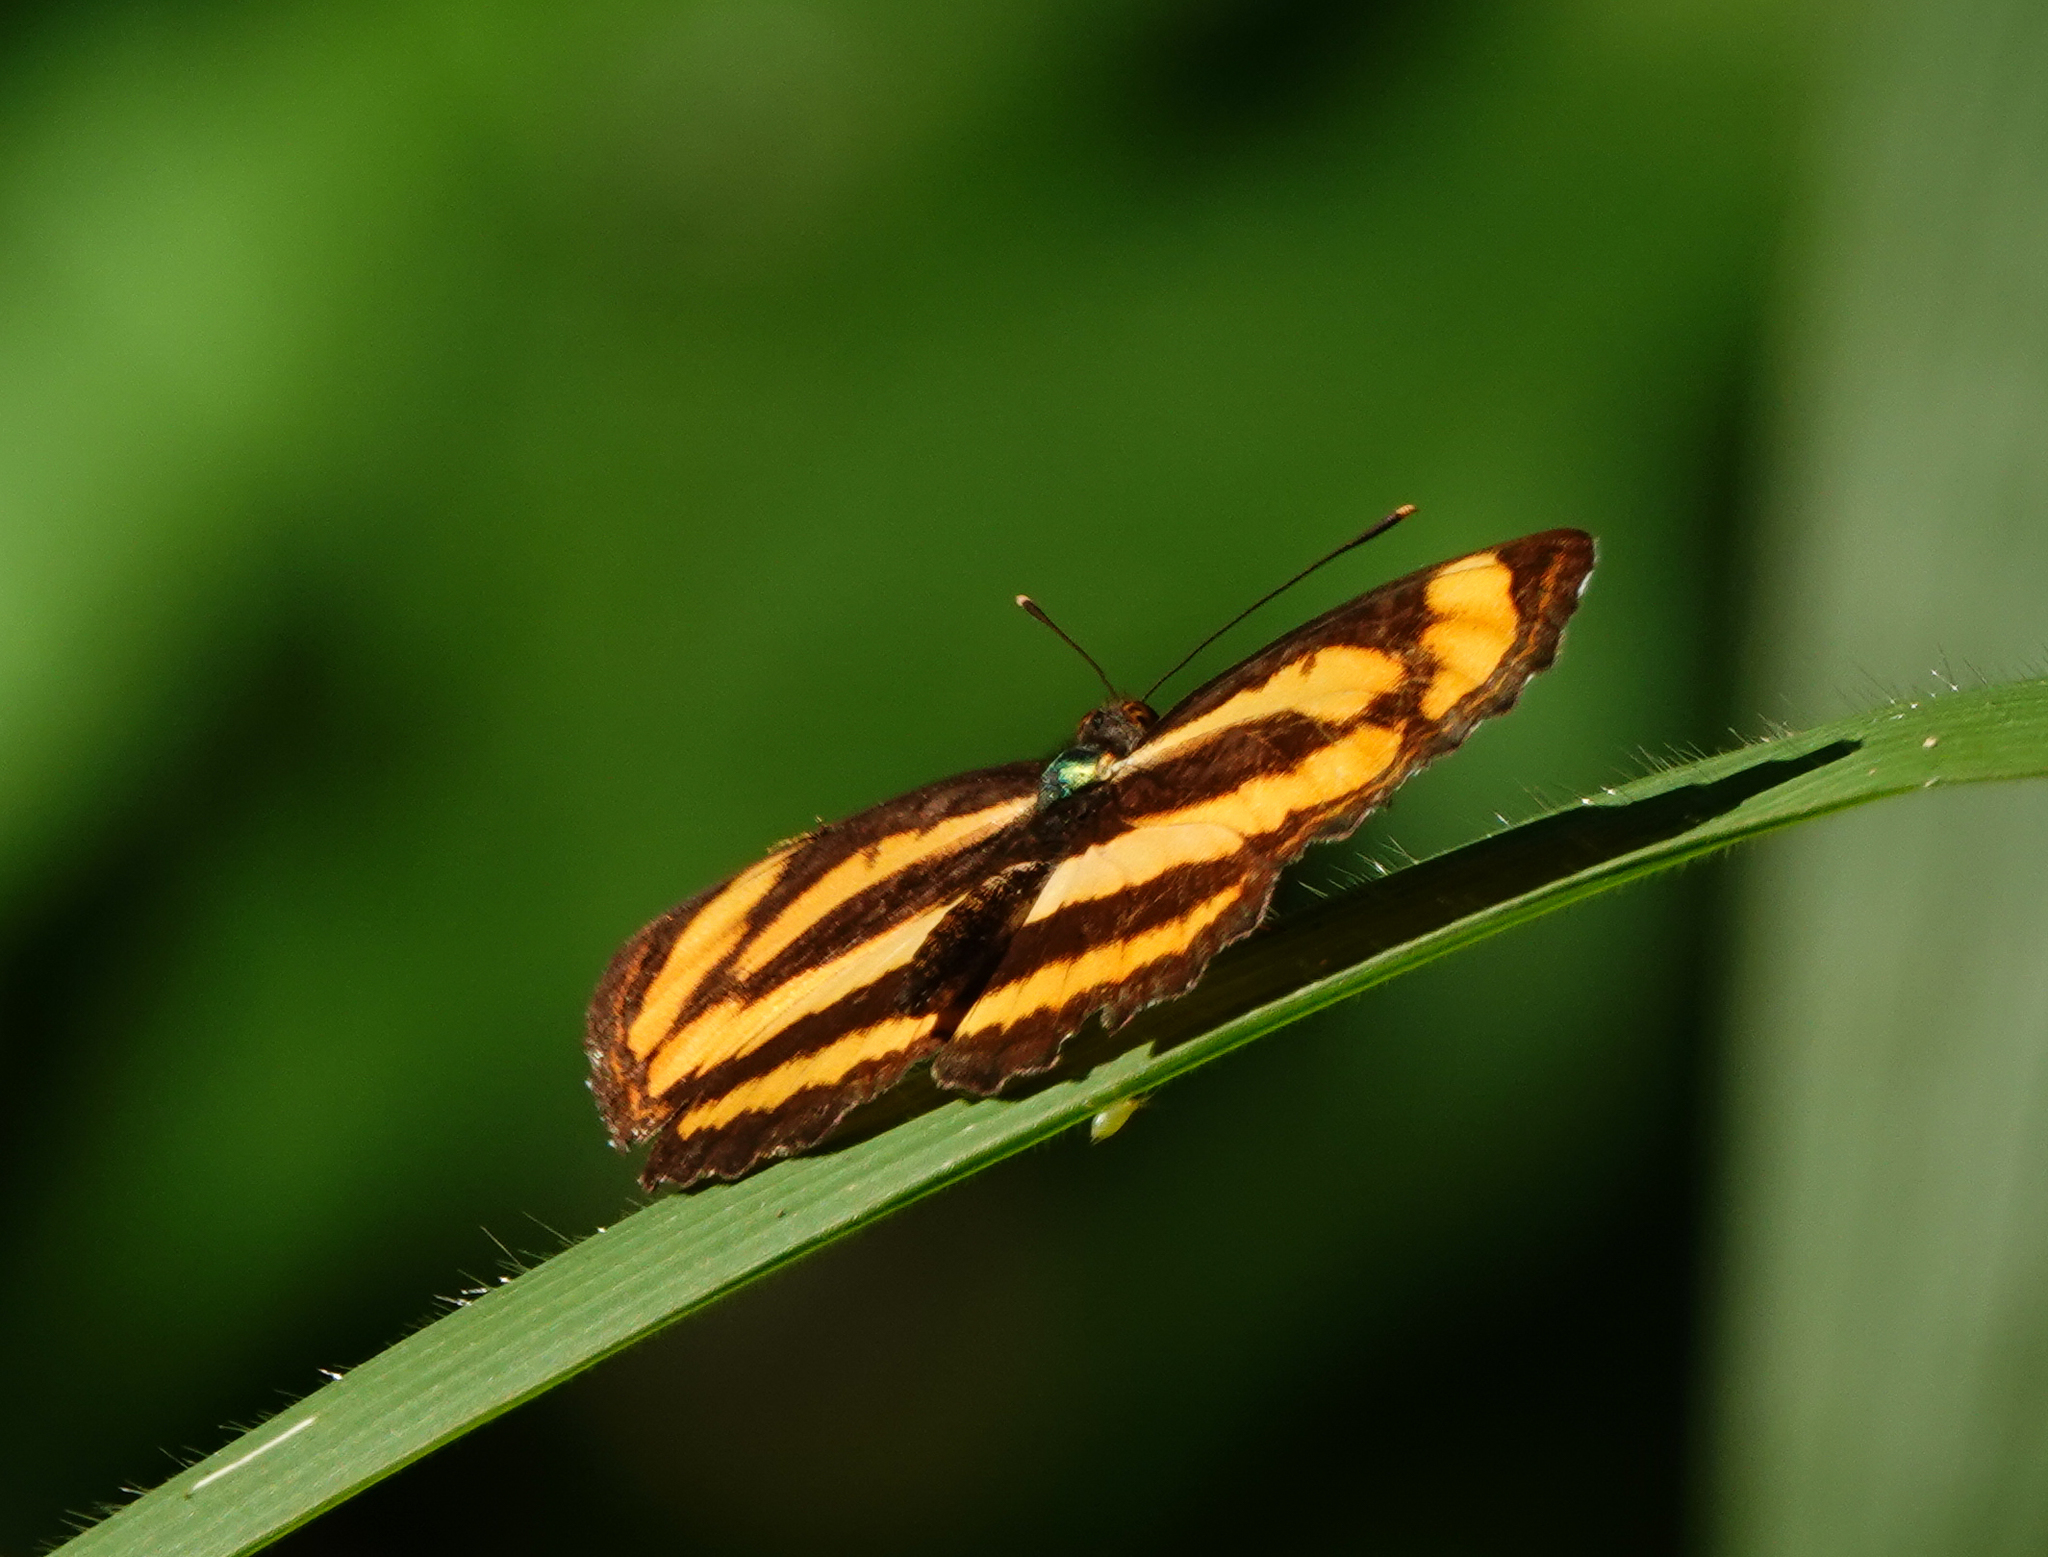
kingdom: Animalia
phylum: Arthropoda
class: Insecta
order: Lepidoptera
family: Nymphalidae
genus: Pantoporia
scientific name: Pantoporia hordonia
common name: Common lascar
